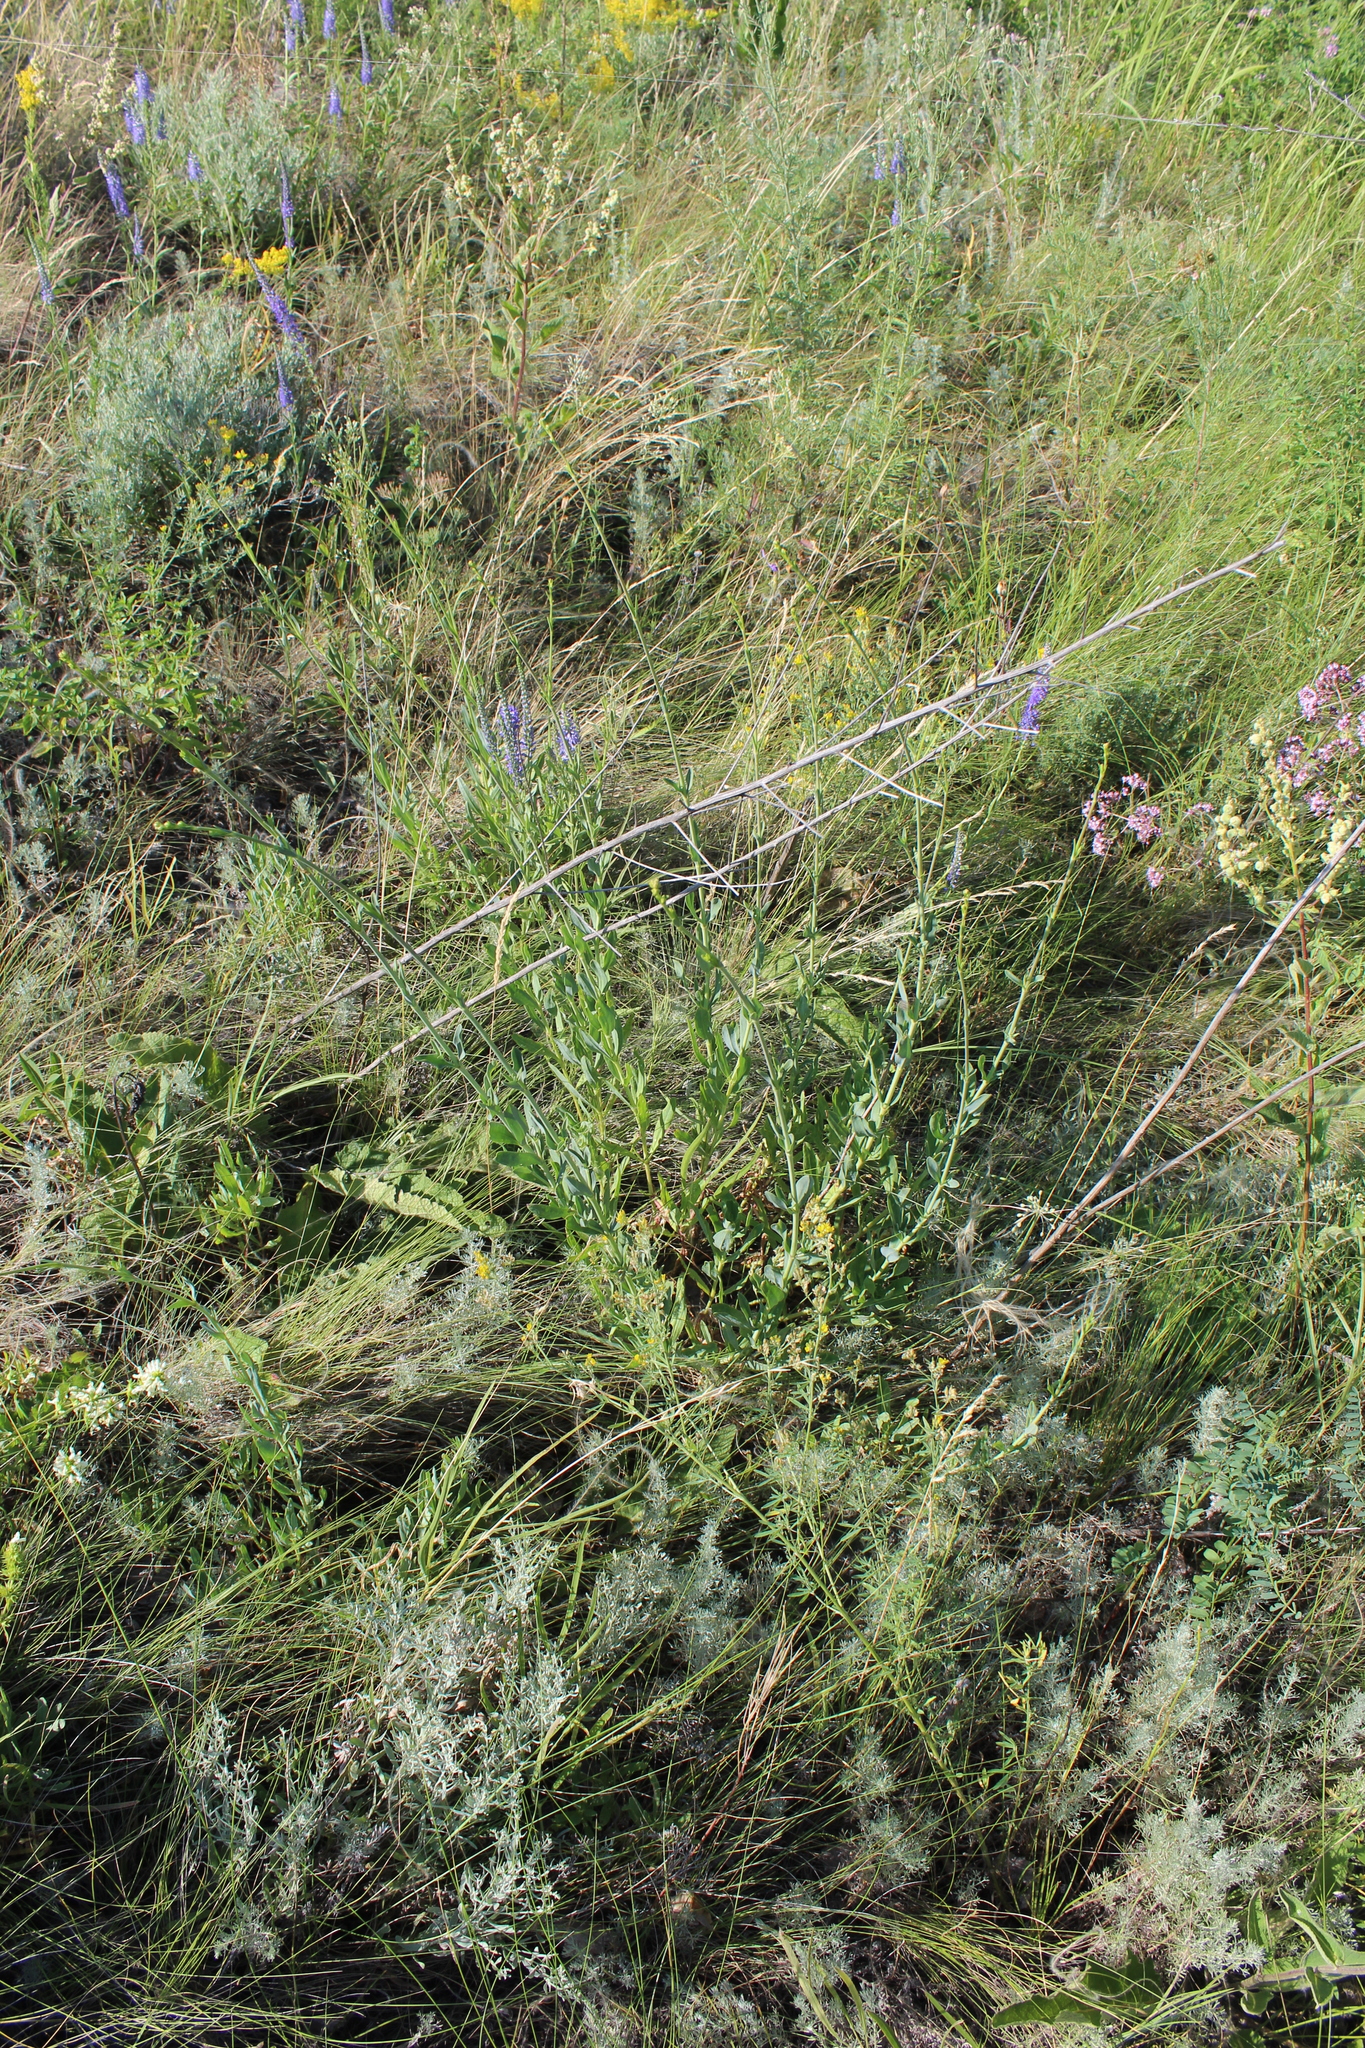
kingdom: Plantae
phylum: Tracheophyta
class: Magnoliopsida
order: Caryophyllales
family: Caryophyllaceae
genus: Gypsophila
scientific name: Gypsophila altissima
